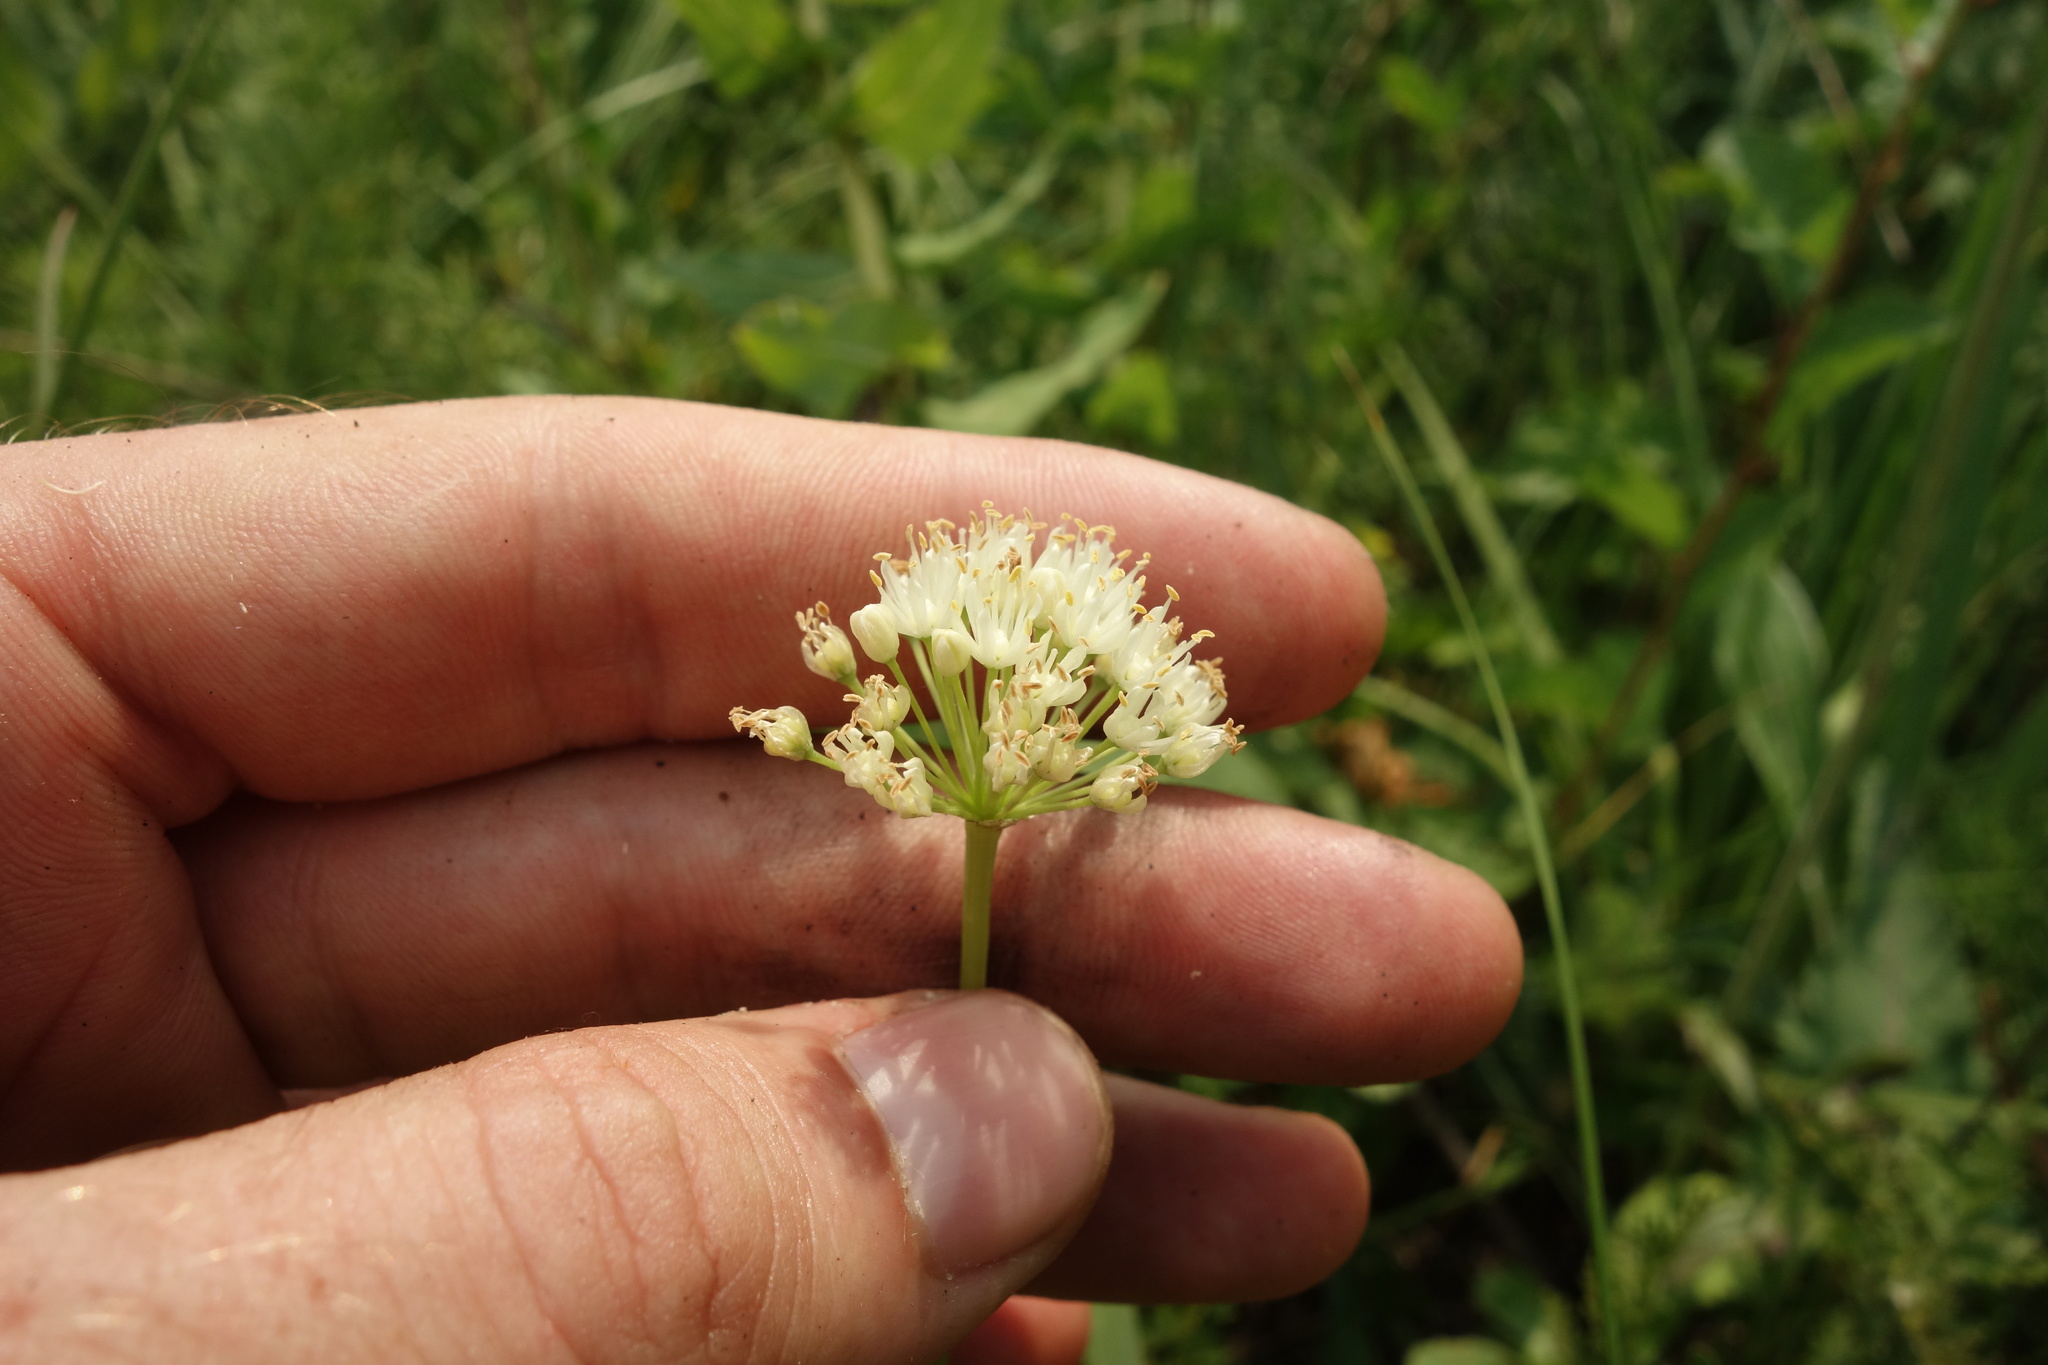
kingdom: Plantae
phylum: Tracheophyta
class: Liliopsida
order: Asparagales
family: Amaryllidaceae
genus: Allium
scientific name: Allium flavescens
